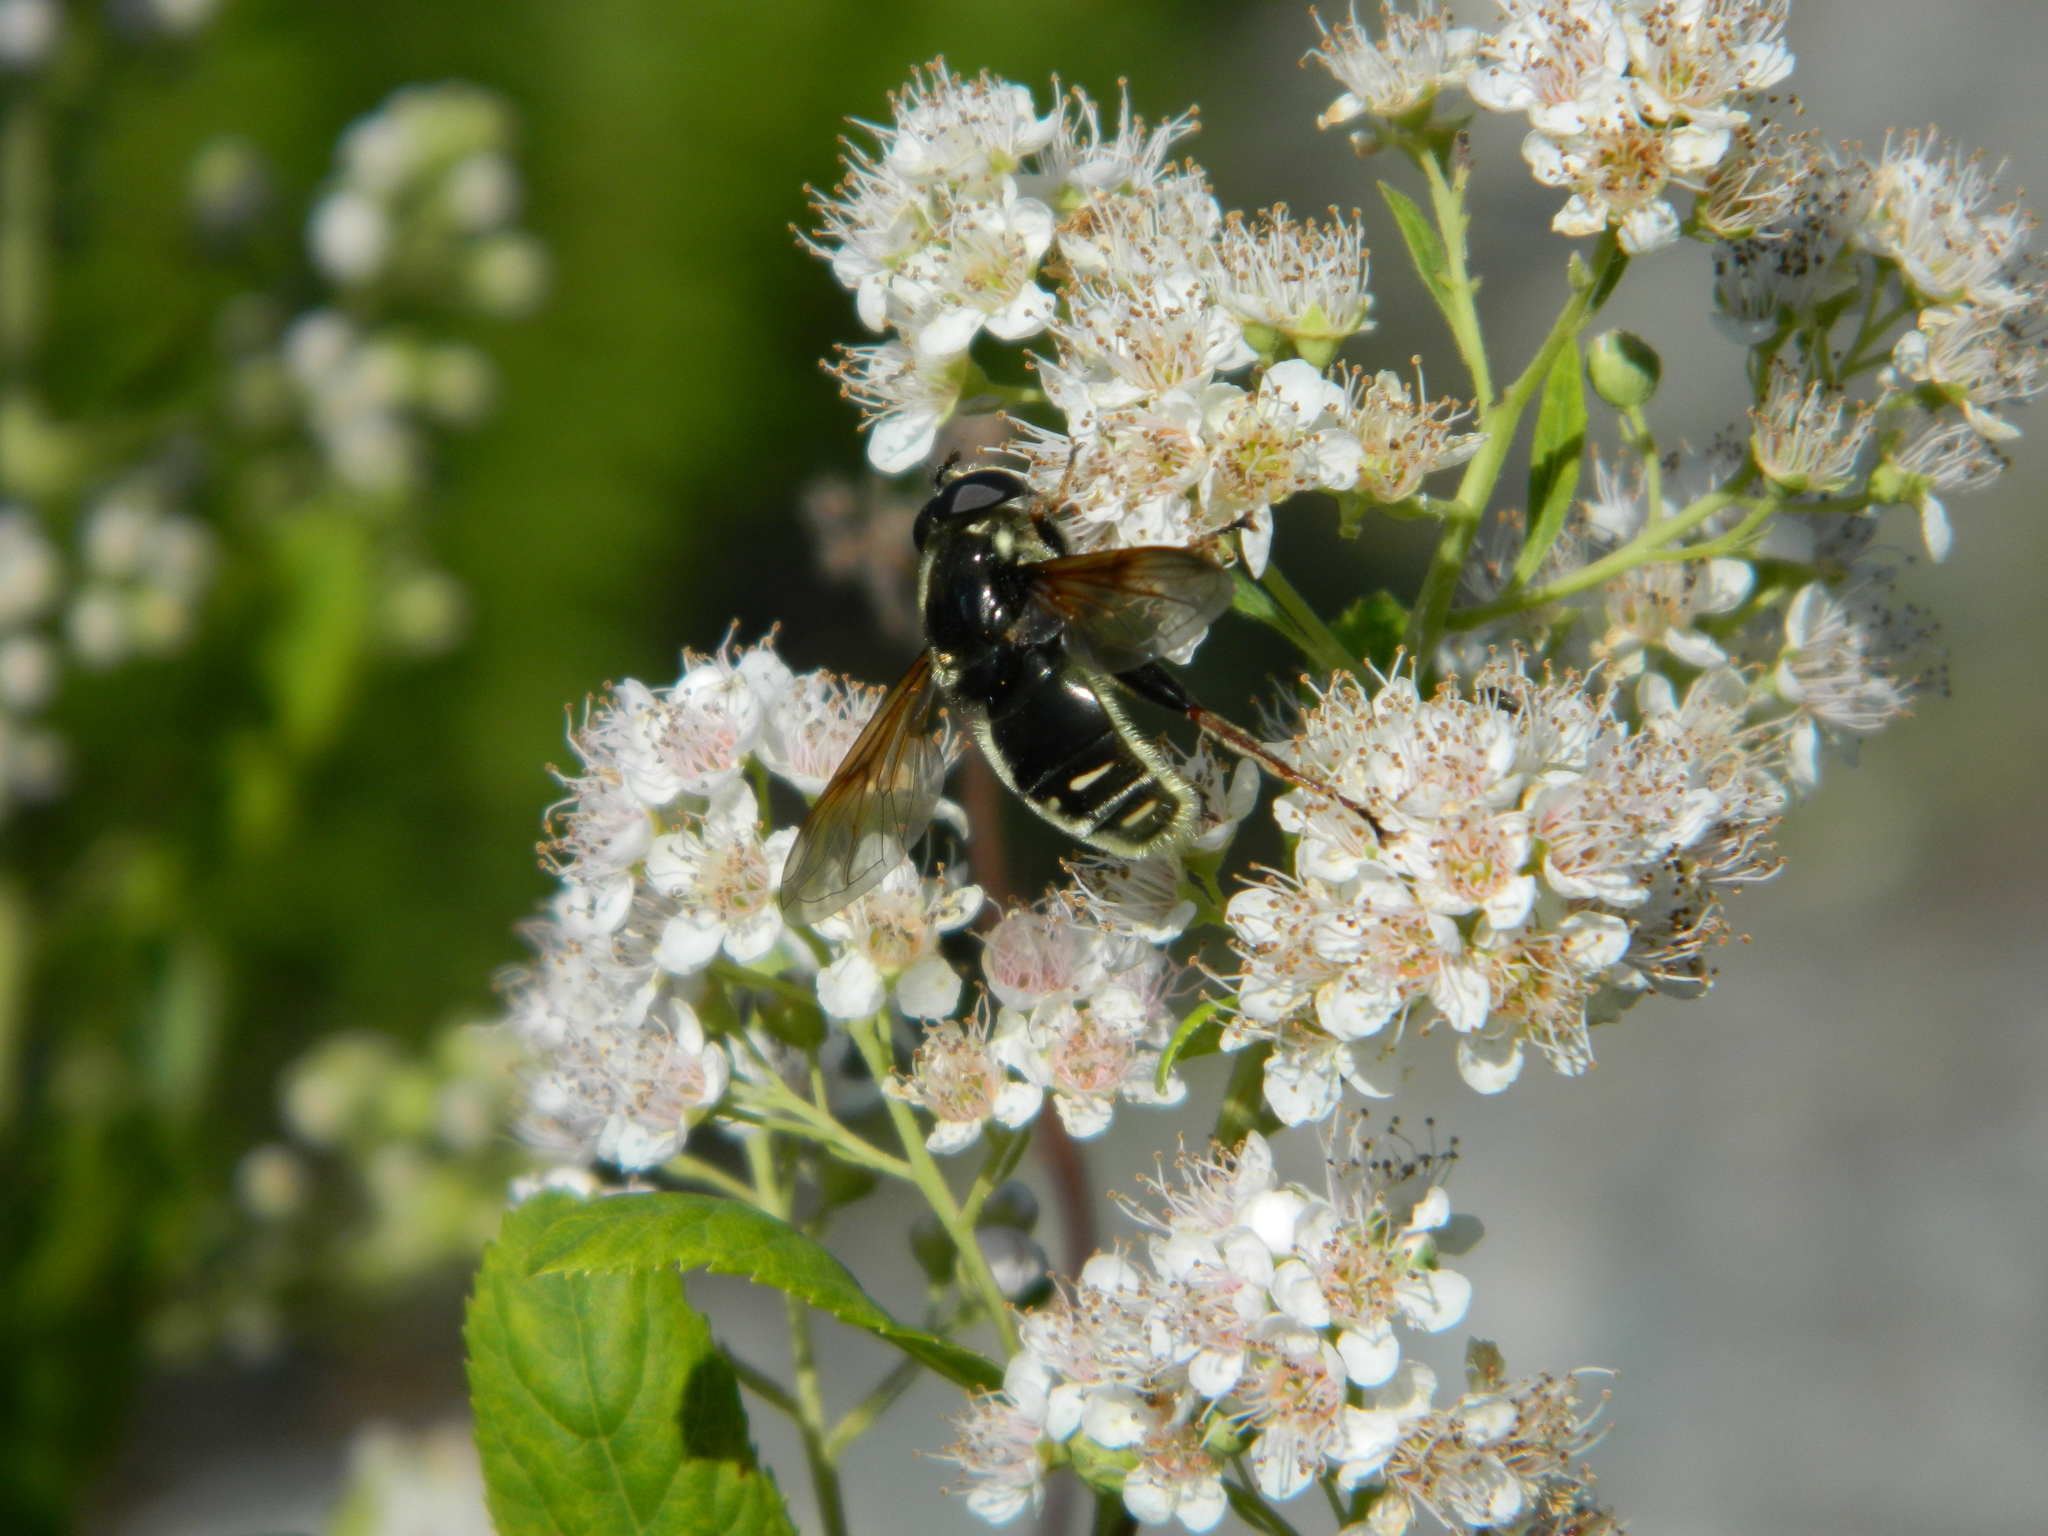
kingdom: Animalia
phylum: Arthropoda
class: Insecta
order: Diptera
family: Syrphidae
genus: Sericomyia
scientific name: Sericomyia militaris
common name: Narrow-banded pond fly
